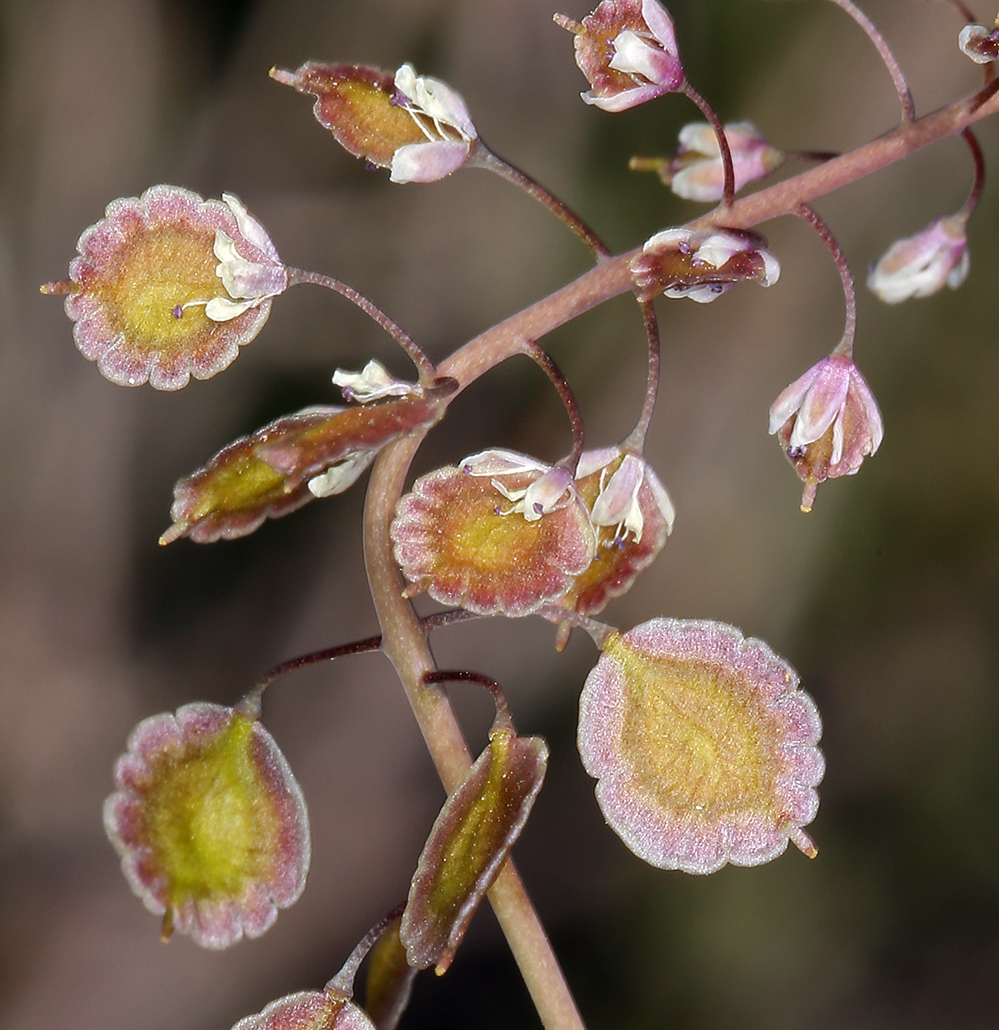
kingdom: Plantae
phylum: Tracheophyta
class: Magnoliopsida
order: Brassicales
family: Brassicaceae
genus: Thysanocarpus
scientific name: Thysanocarpus curvipes
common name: Sand fringepod
